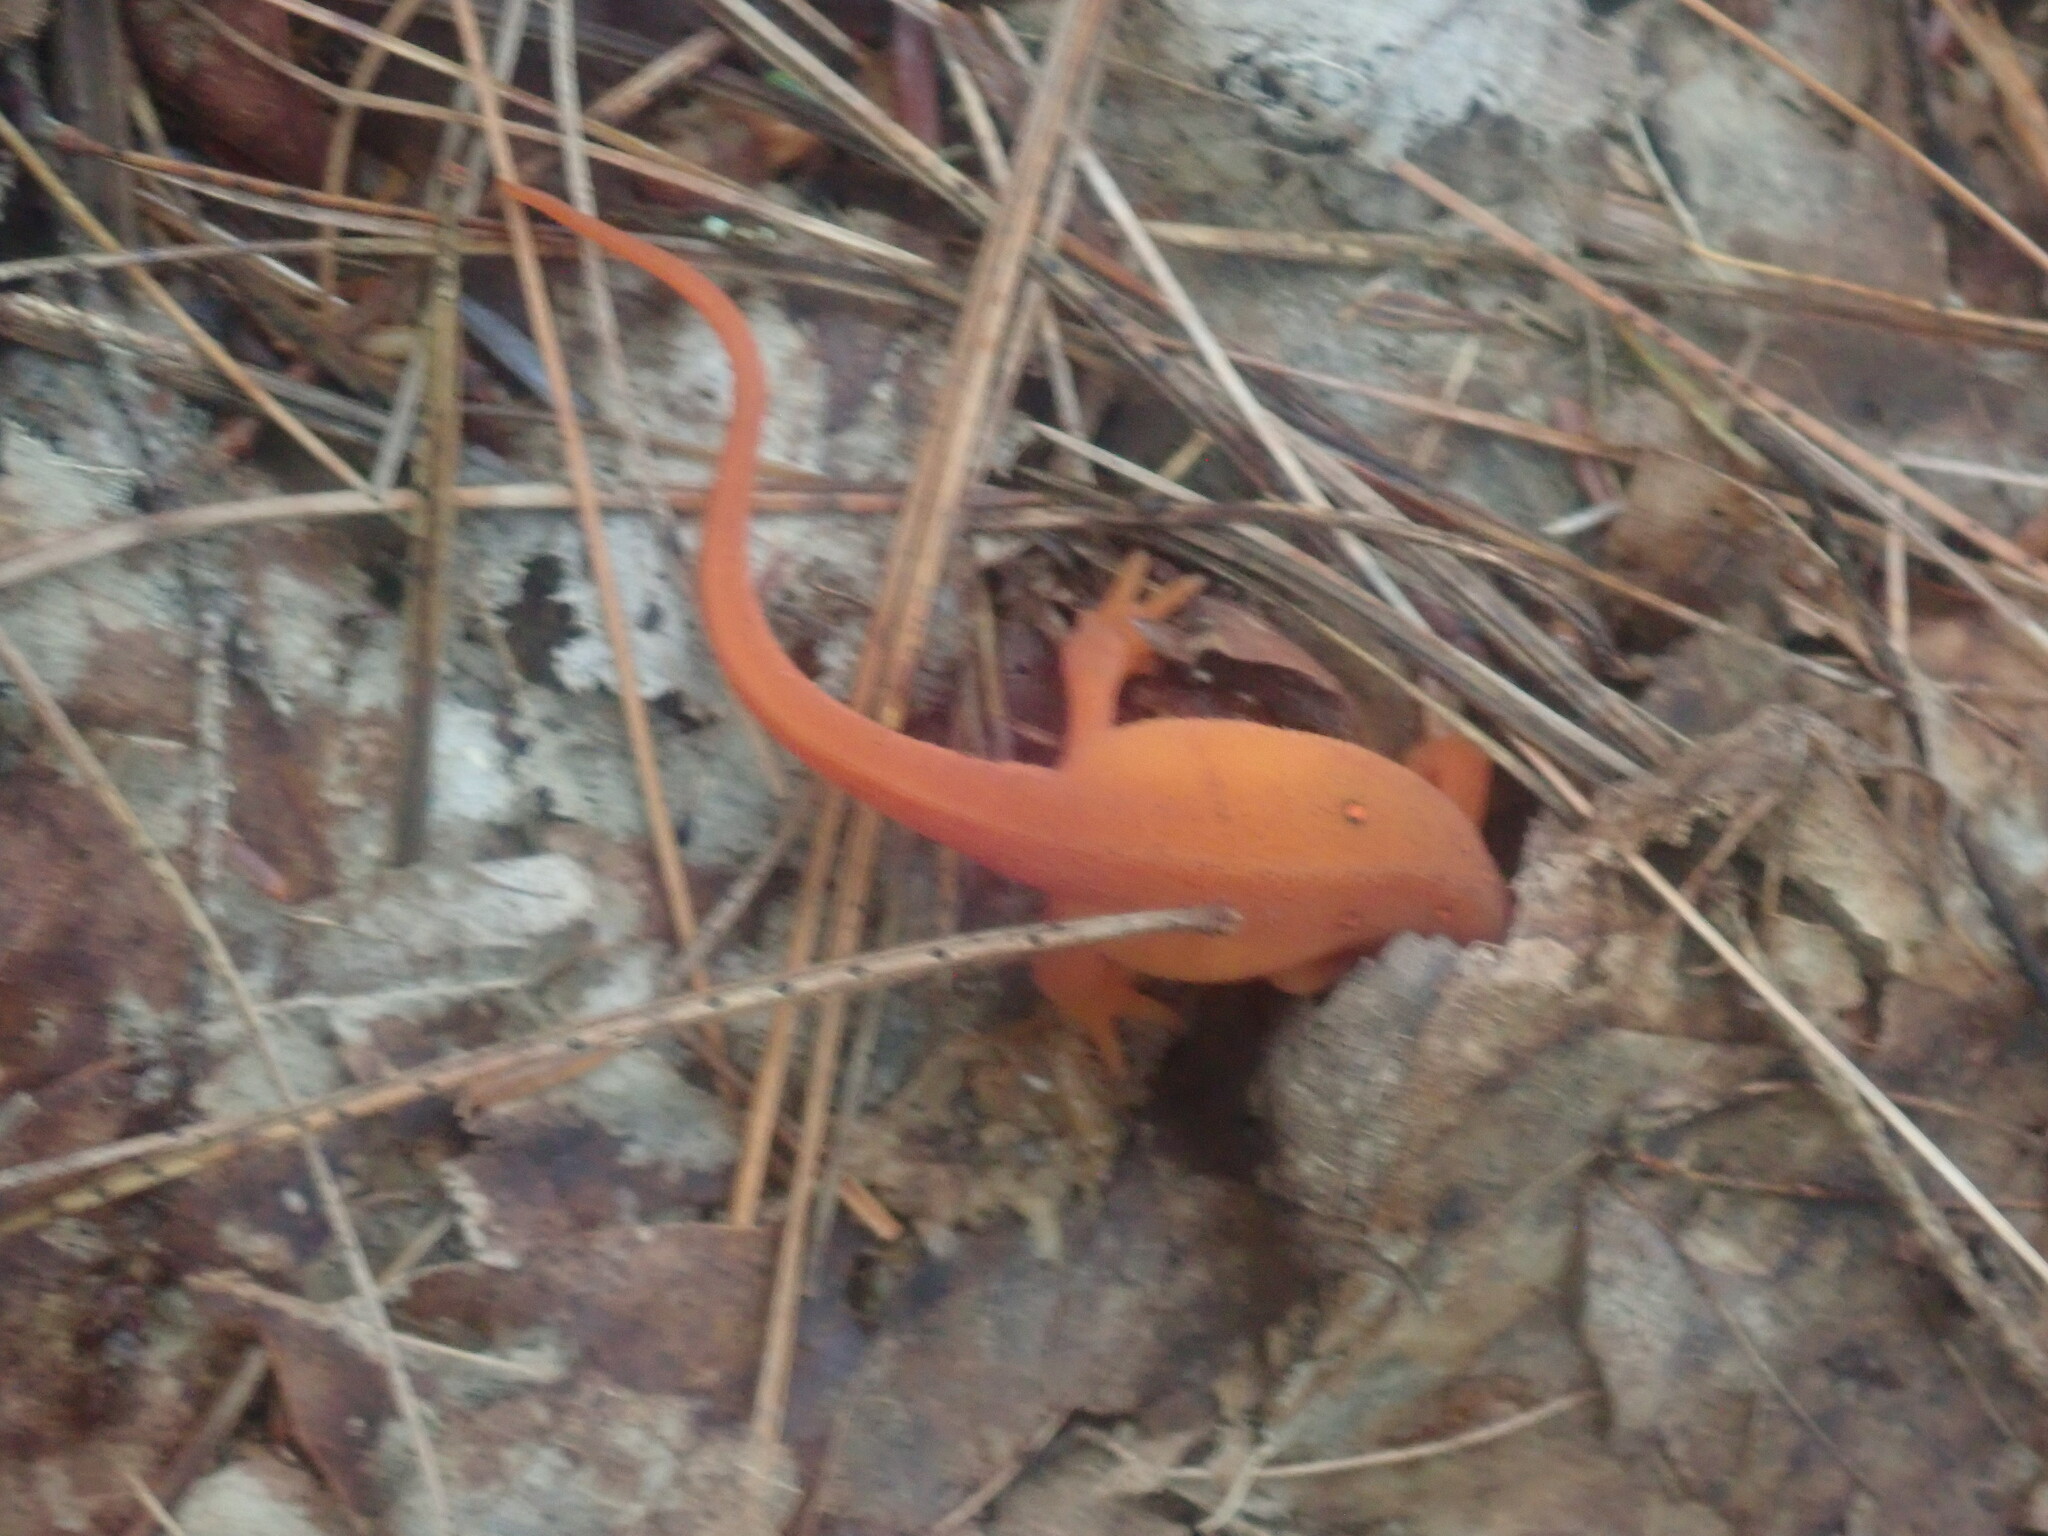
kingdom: Animalia
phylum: Chordata
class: Amphibia
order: Caudata
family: Salamandridae
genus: Notophthalmus
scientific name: Notophthalmus viridescens
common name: Eastern newt
